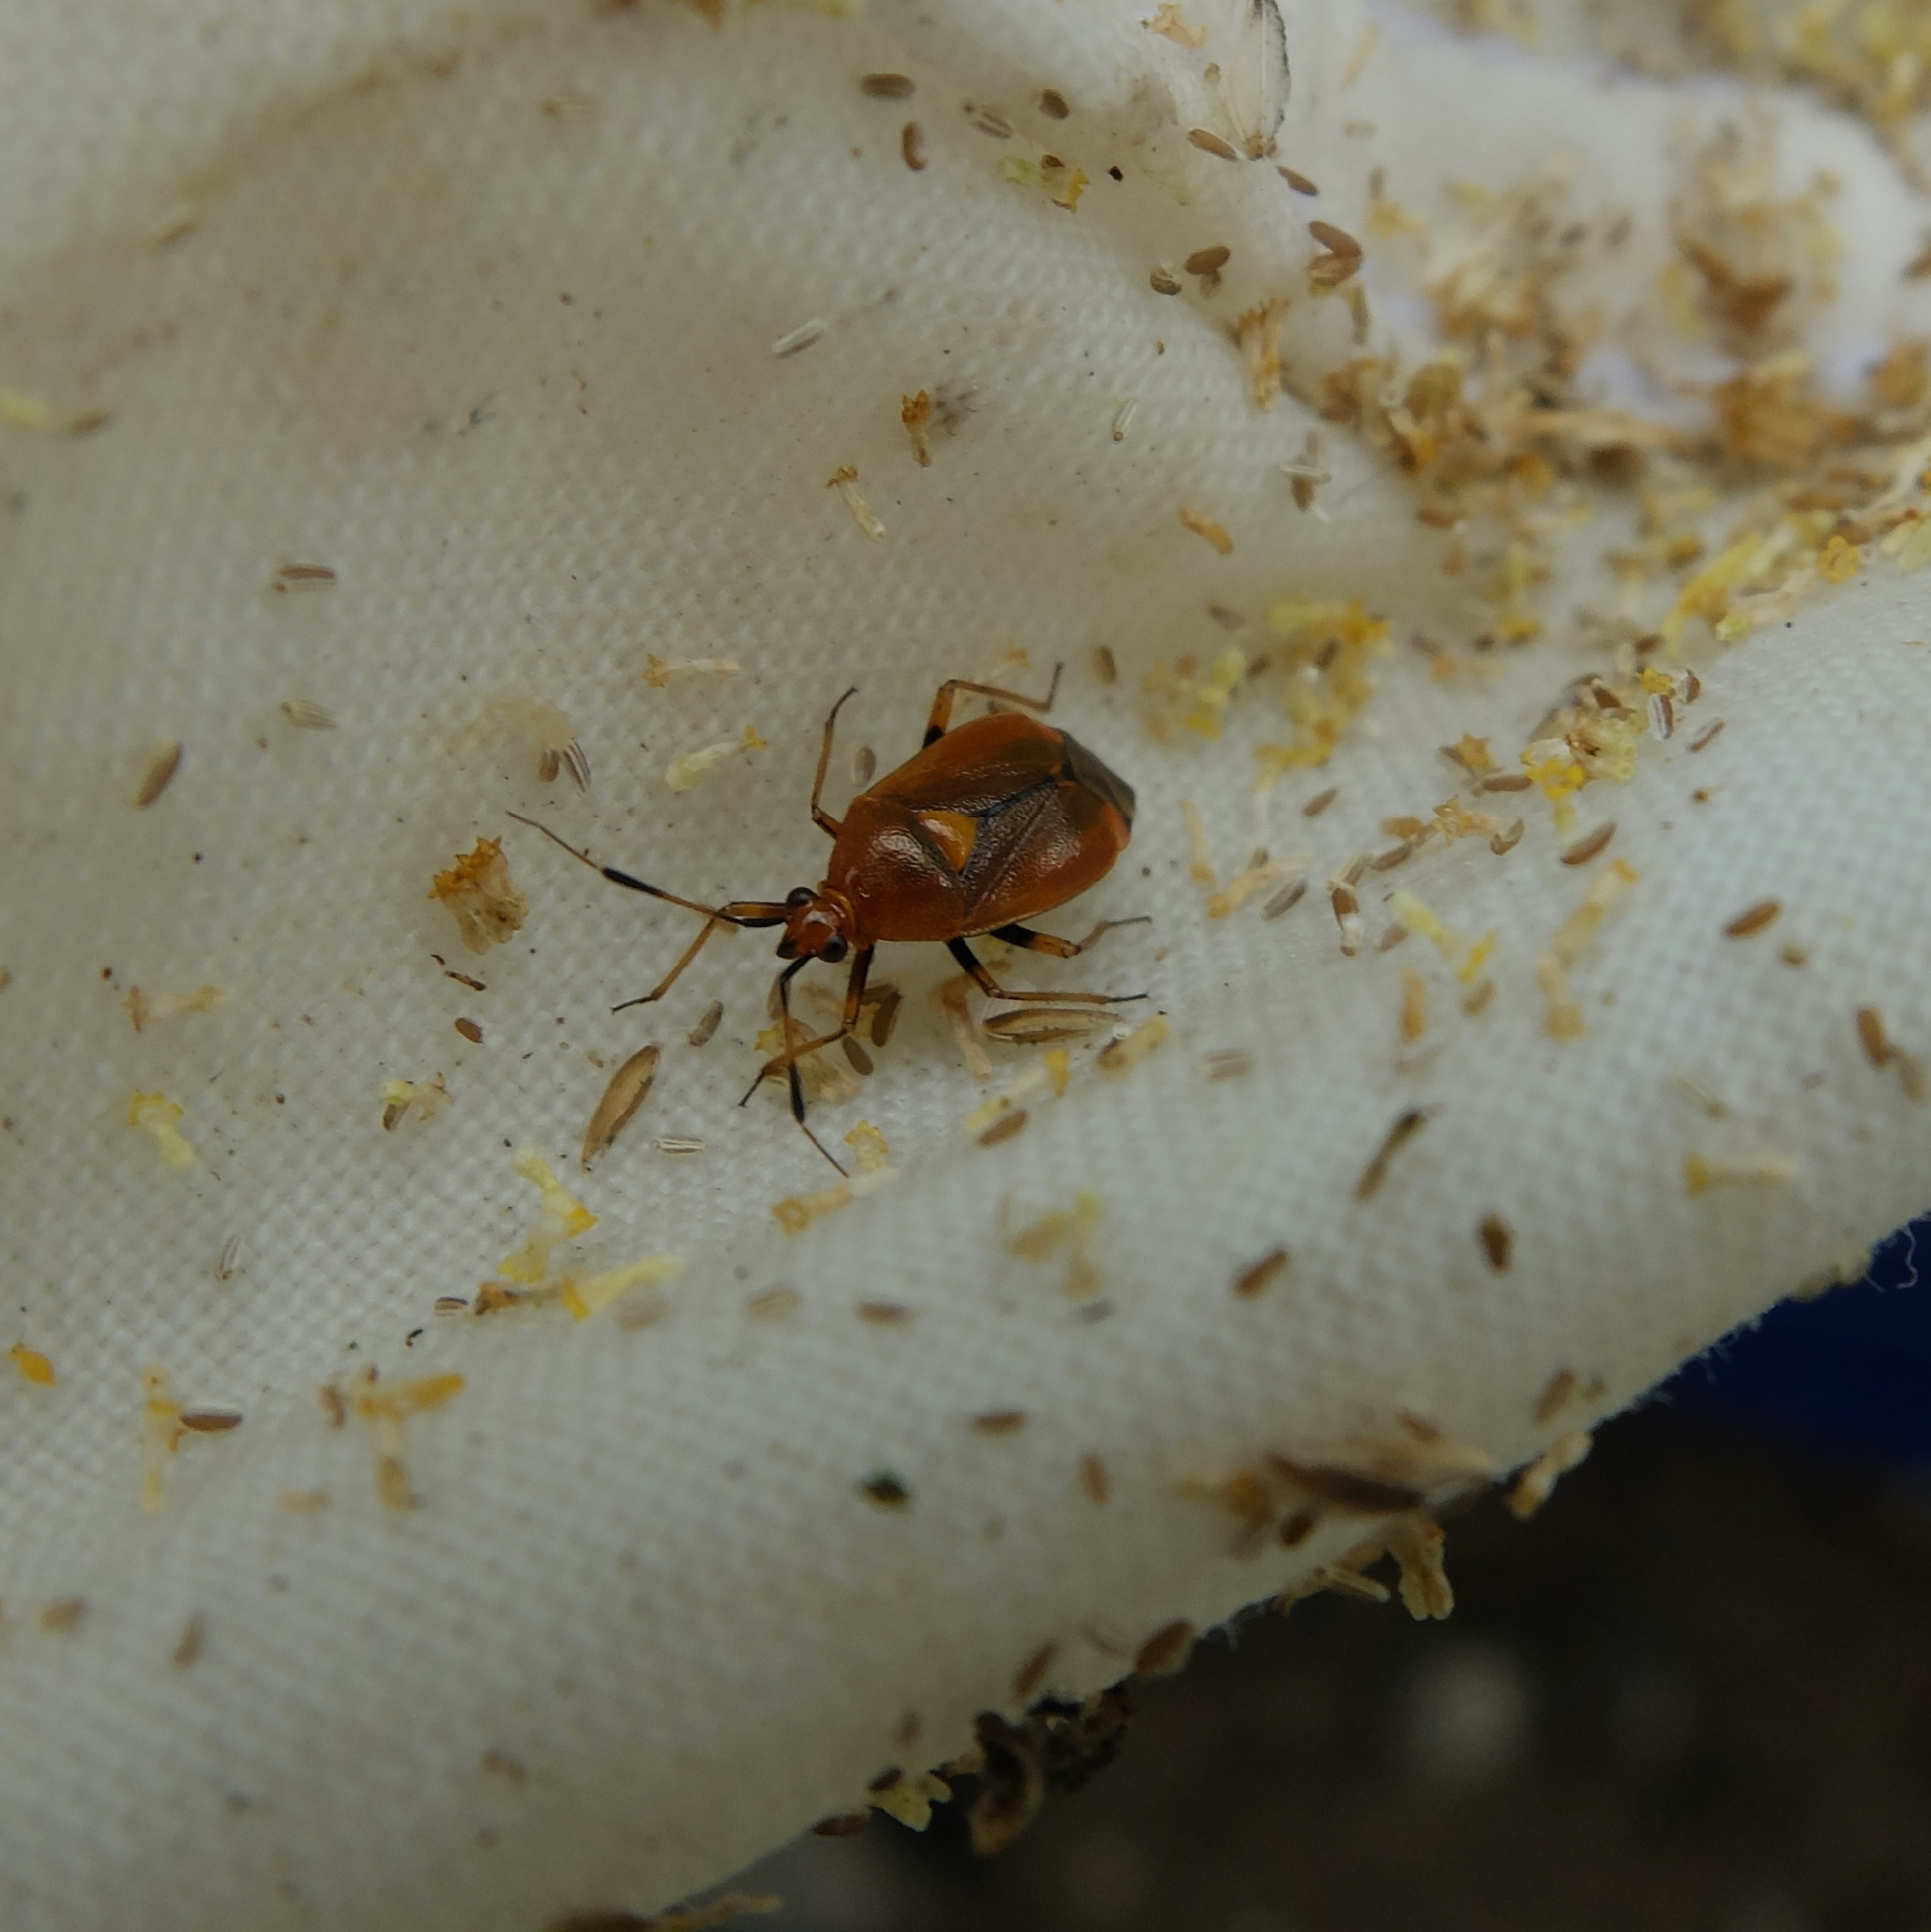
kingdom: Animalia
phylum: Arthropoda
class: Insecta
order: Hemiptera
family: Miridae
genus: Deraeocoris
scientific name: Deraeocoris ruber
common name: Plant bug
